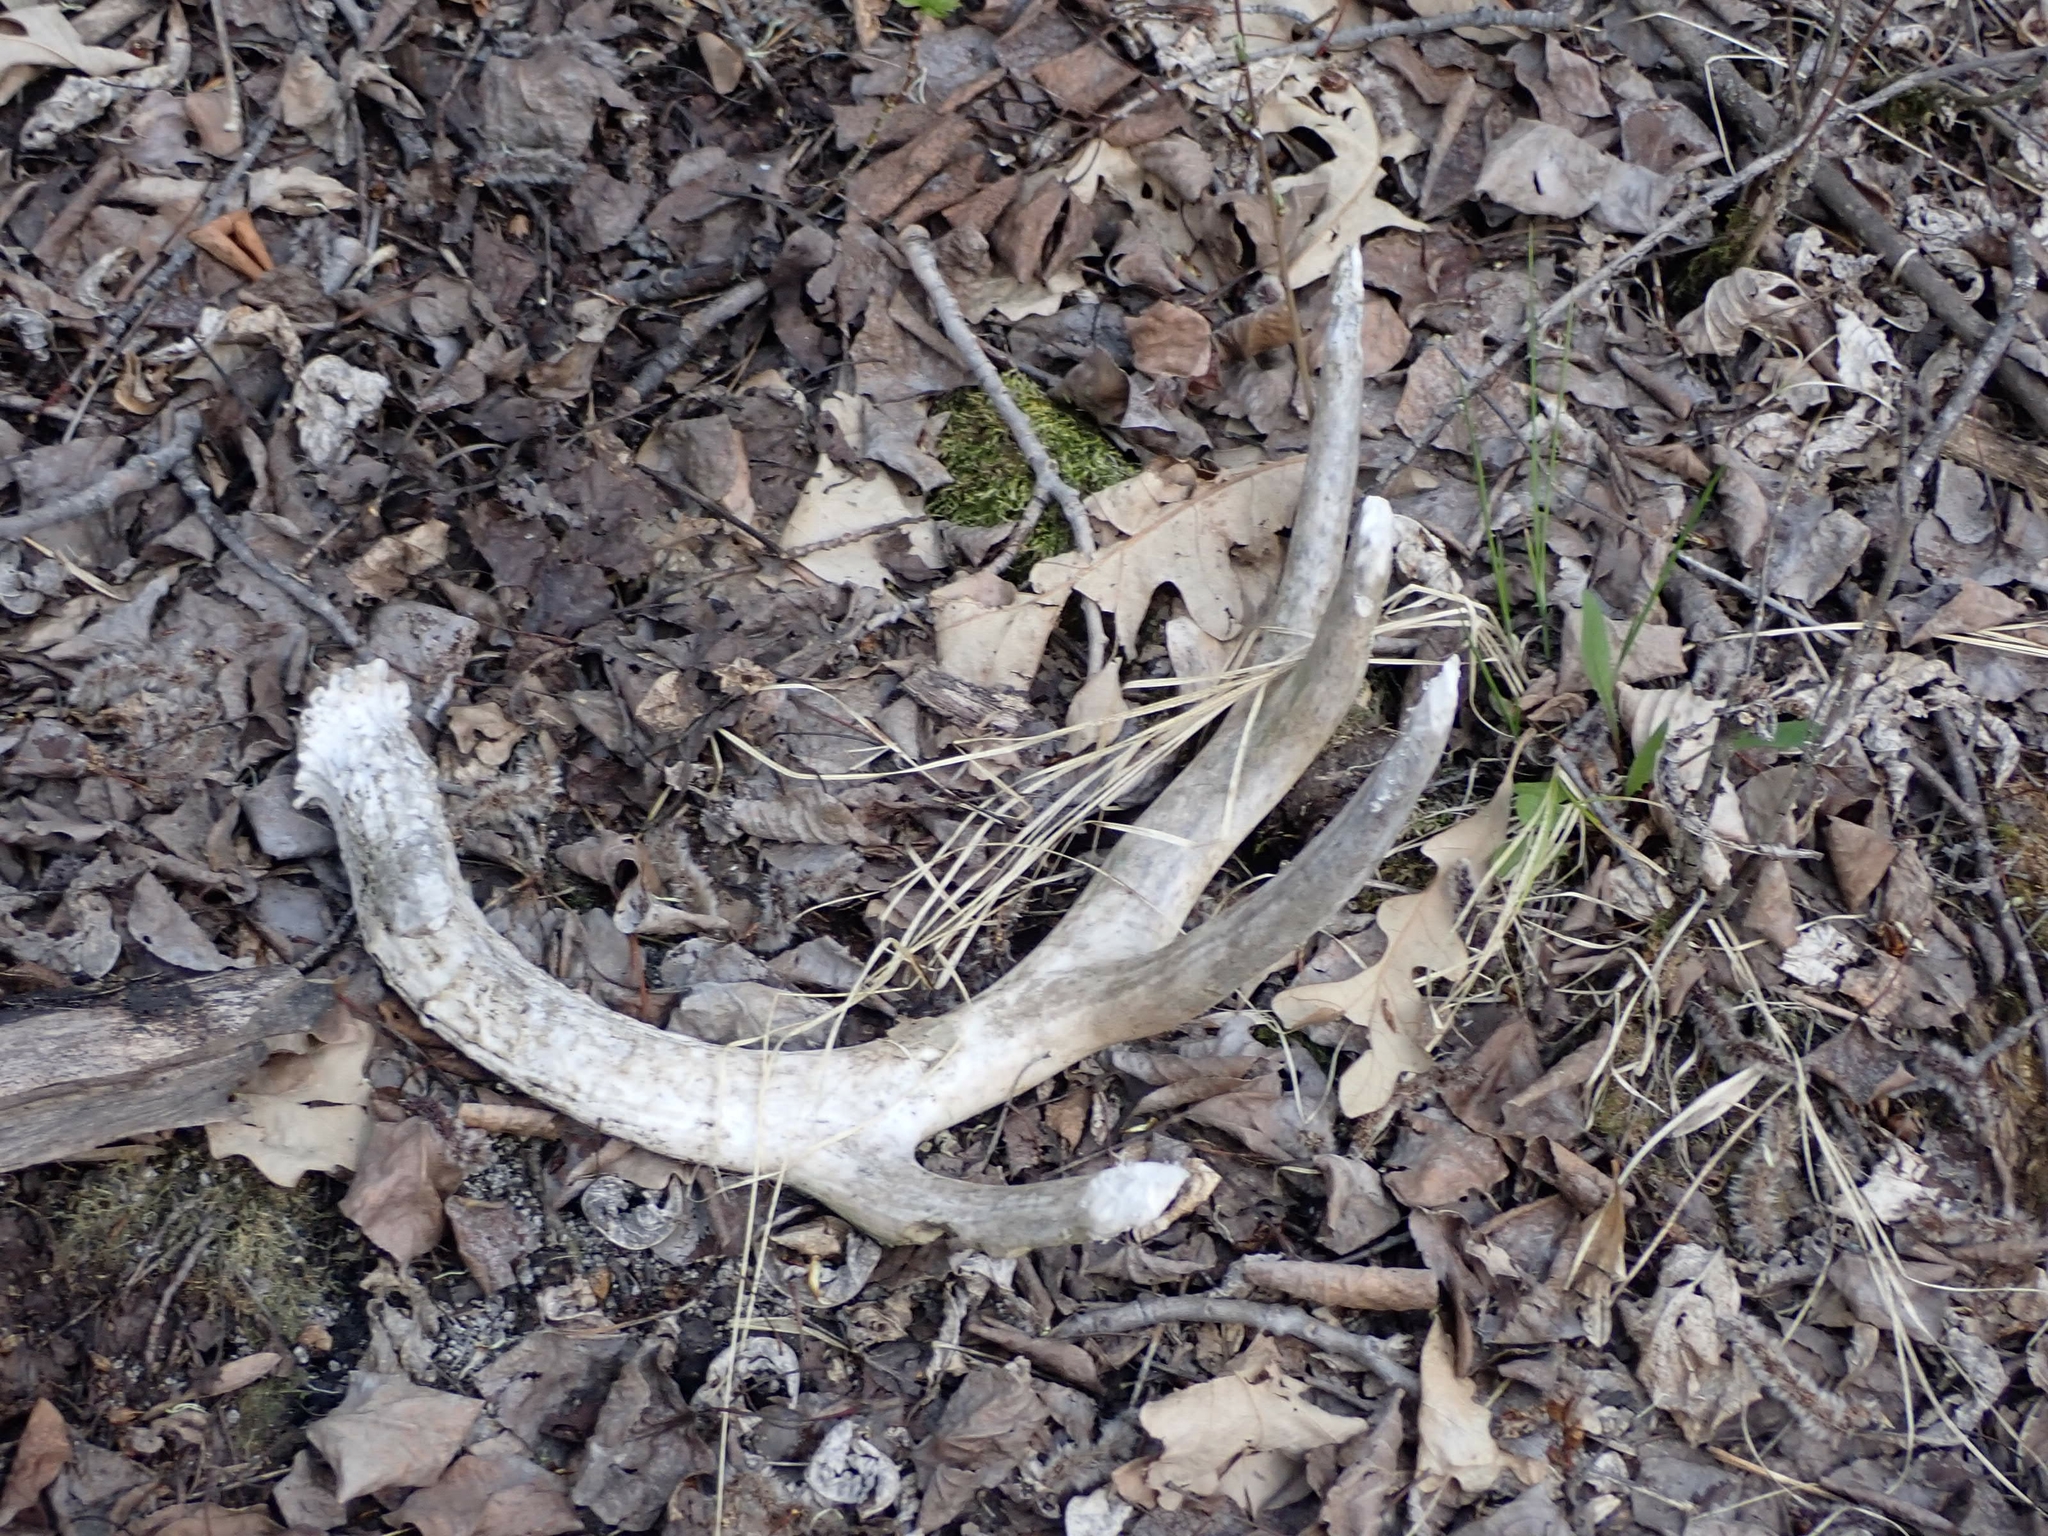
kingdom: Animalia
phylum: Chordata
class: Mammalia
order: Artiodactyla
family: Cervidae
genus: Odocoileus
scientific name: Odocoileus virginianus
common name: White-tailed deer
